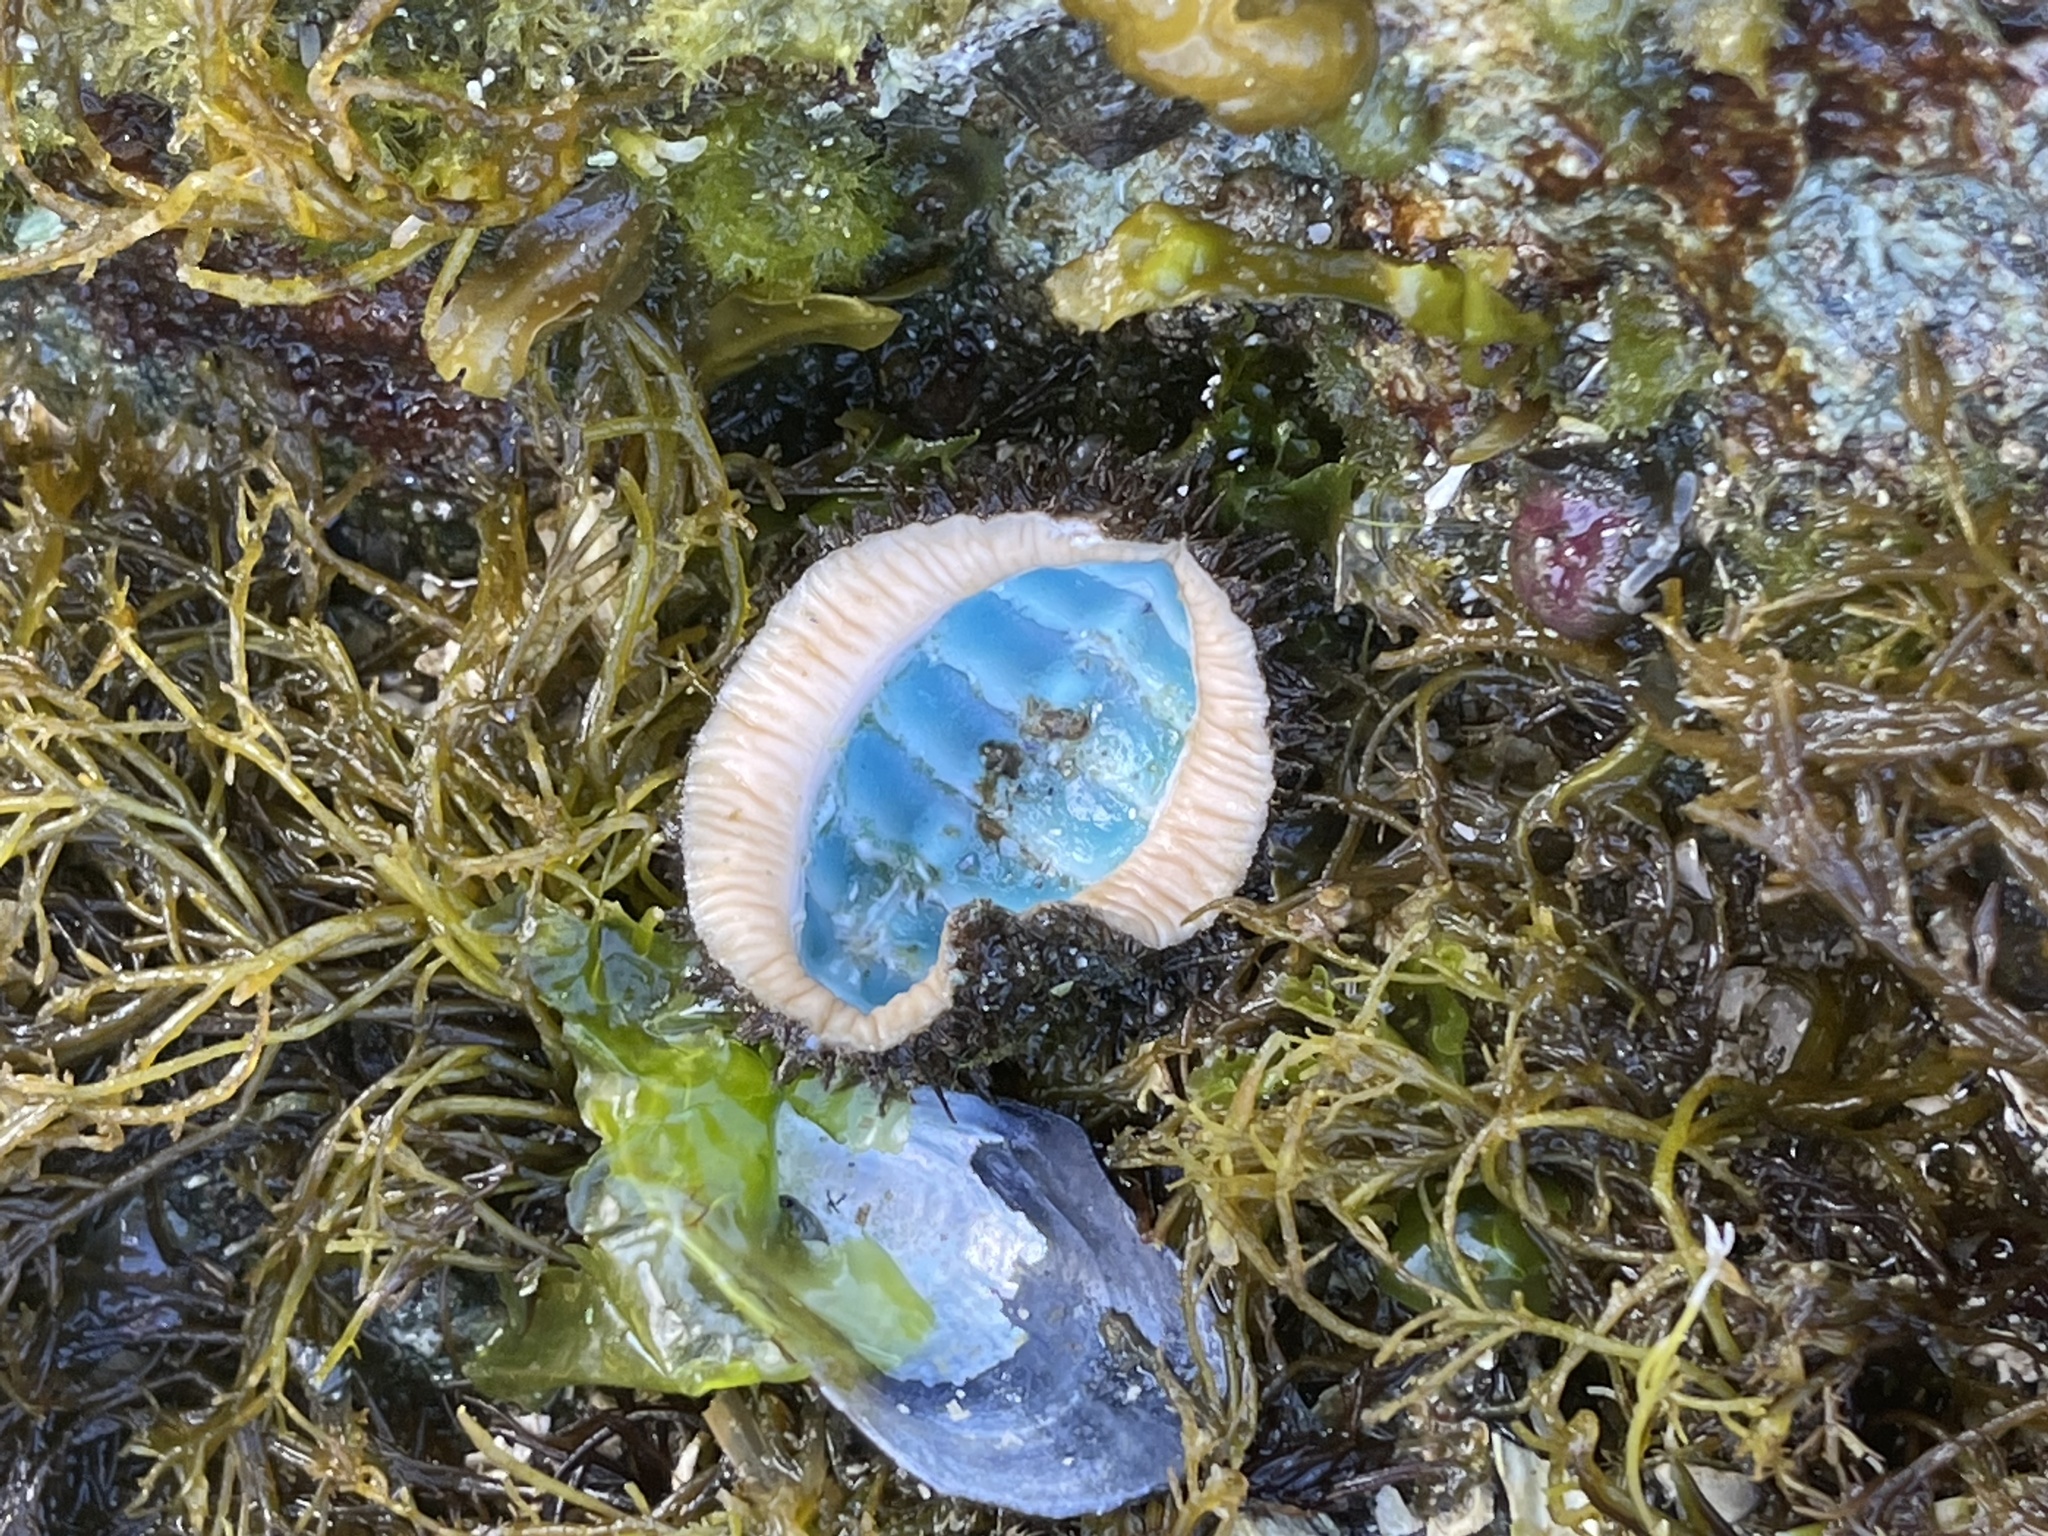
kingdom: Animalia
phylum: Mollusca
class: Polyplacophora
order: Chitonida
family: Mopaliidae
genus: Mopalia
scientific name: Mopalia muscosa
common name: Mossy chiton
